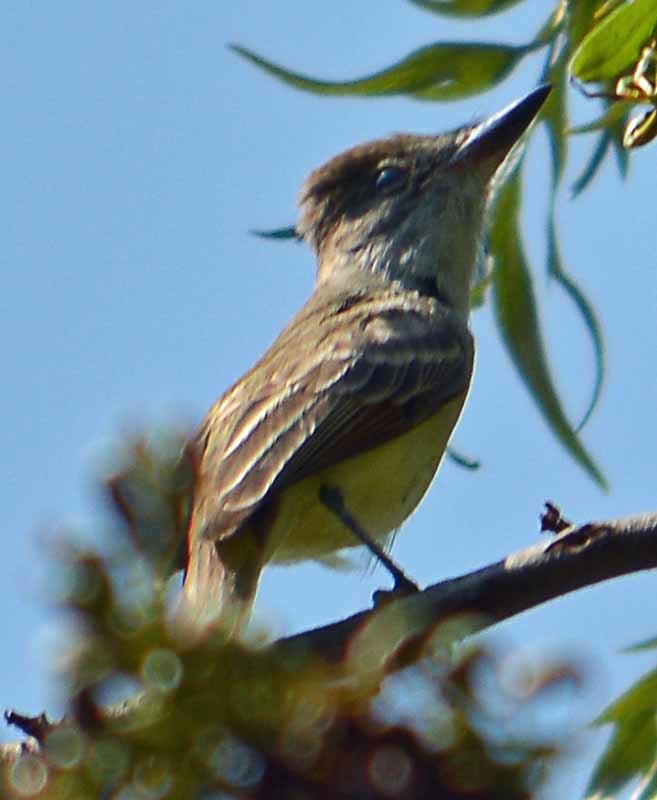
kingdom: Animalia
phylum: Chordata
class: Aves
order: Passeriformes
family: Tyrannidae
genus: Myiarchus
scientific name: Myiarchus tyrannulus
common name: Brown-crested flycatcher
